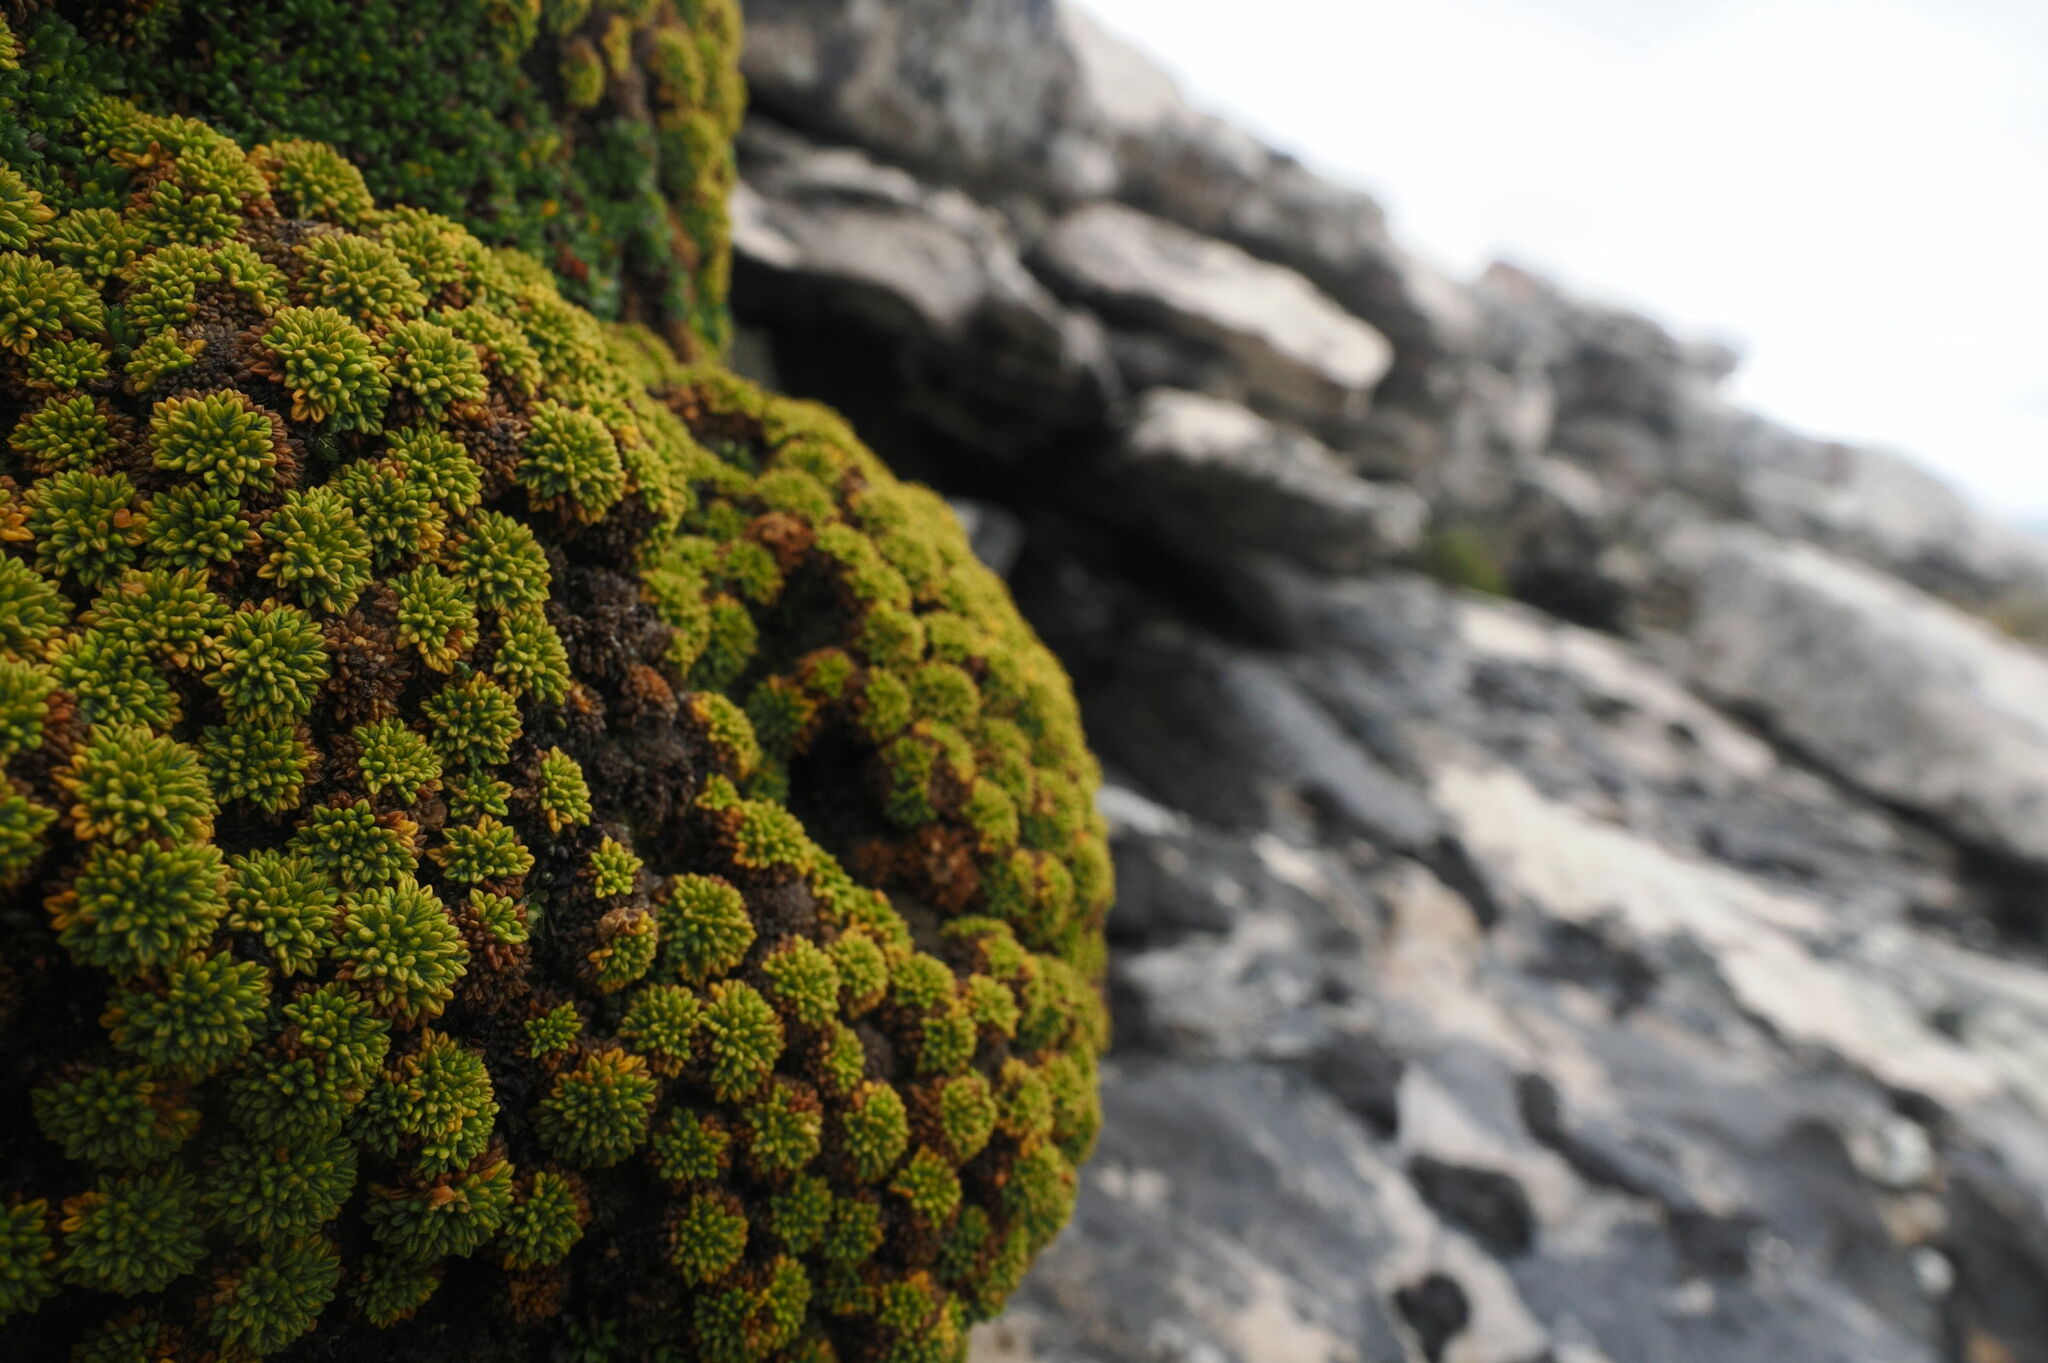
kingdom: Plantae
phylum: Tracheophyta
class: Magnoliopsida
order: Apiales
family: Apiaceae
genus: Bolax
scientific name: Bolax gummifera
